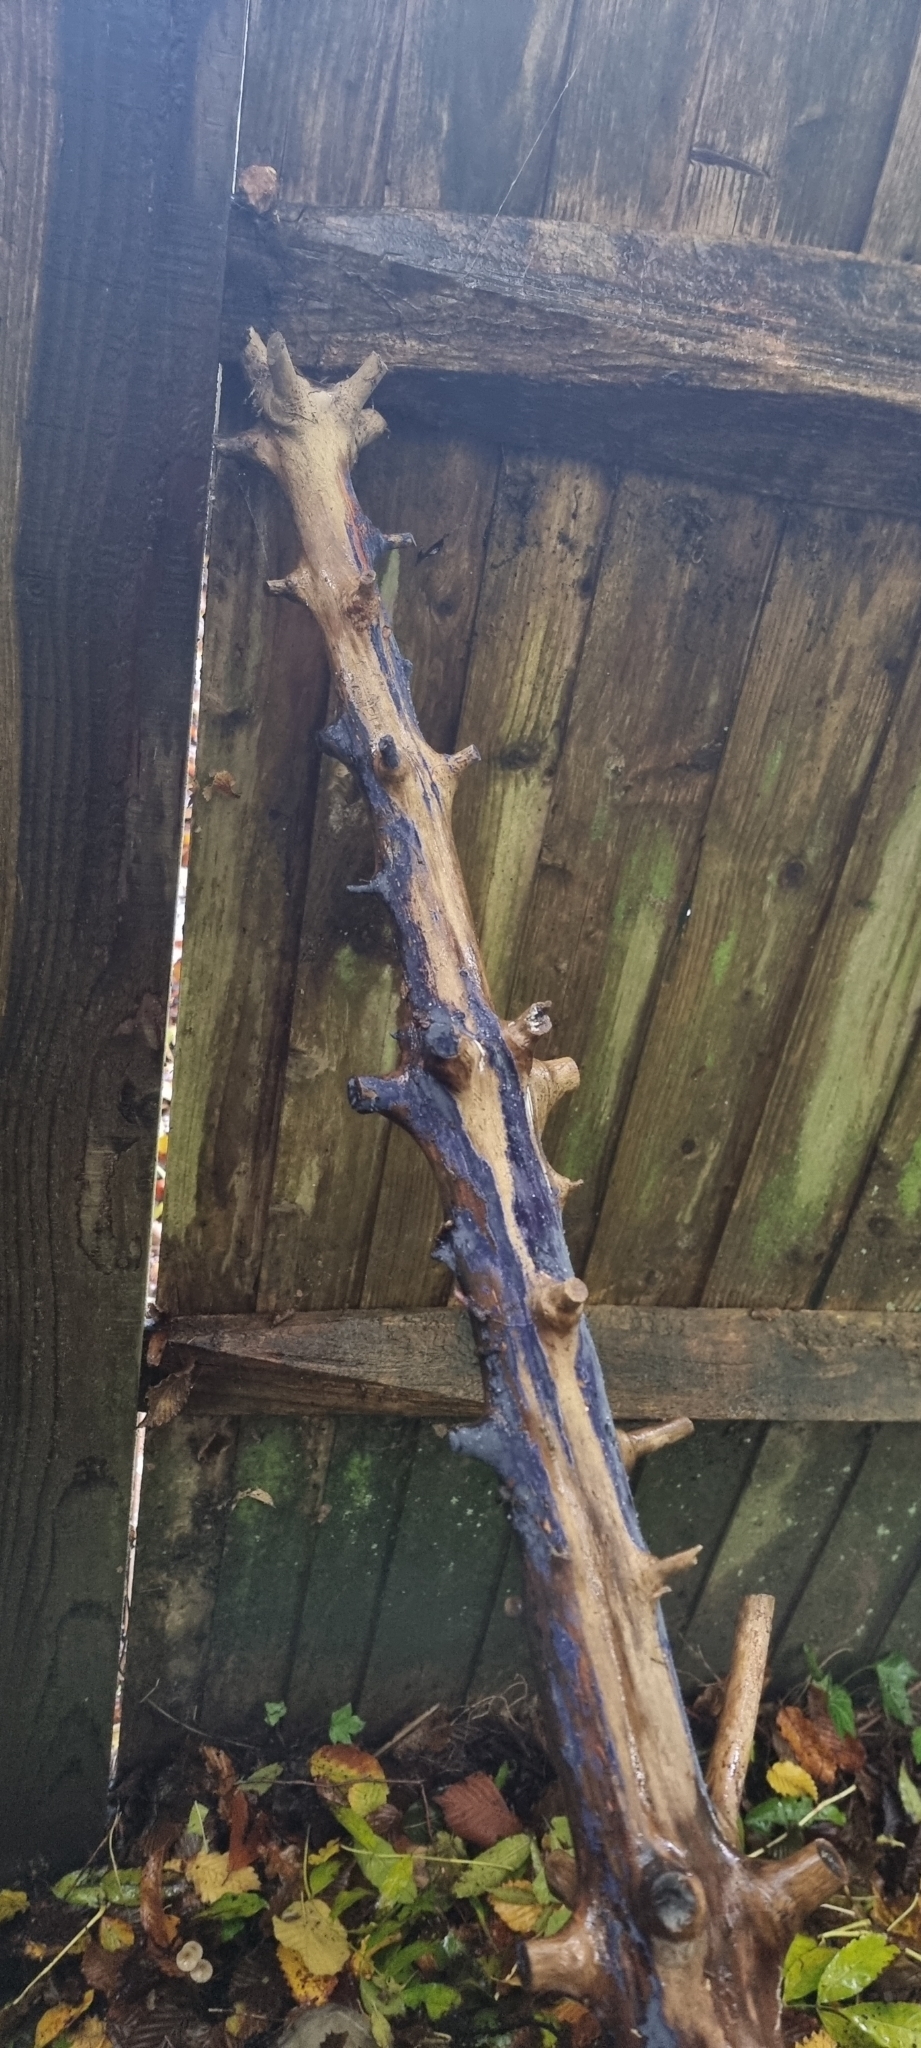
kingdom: Fungi
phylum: Basidiomycota
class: Agaricomycetes
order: Polyporales
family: Phanerochaetaceae
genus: Terana
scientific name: Terana coerulea
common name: Cobalt crust
